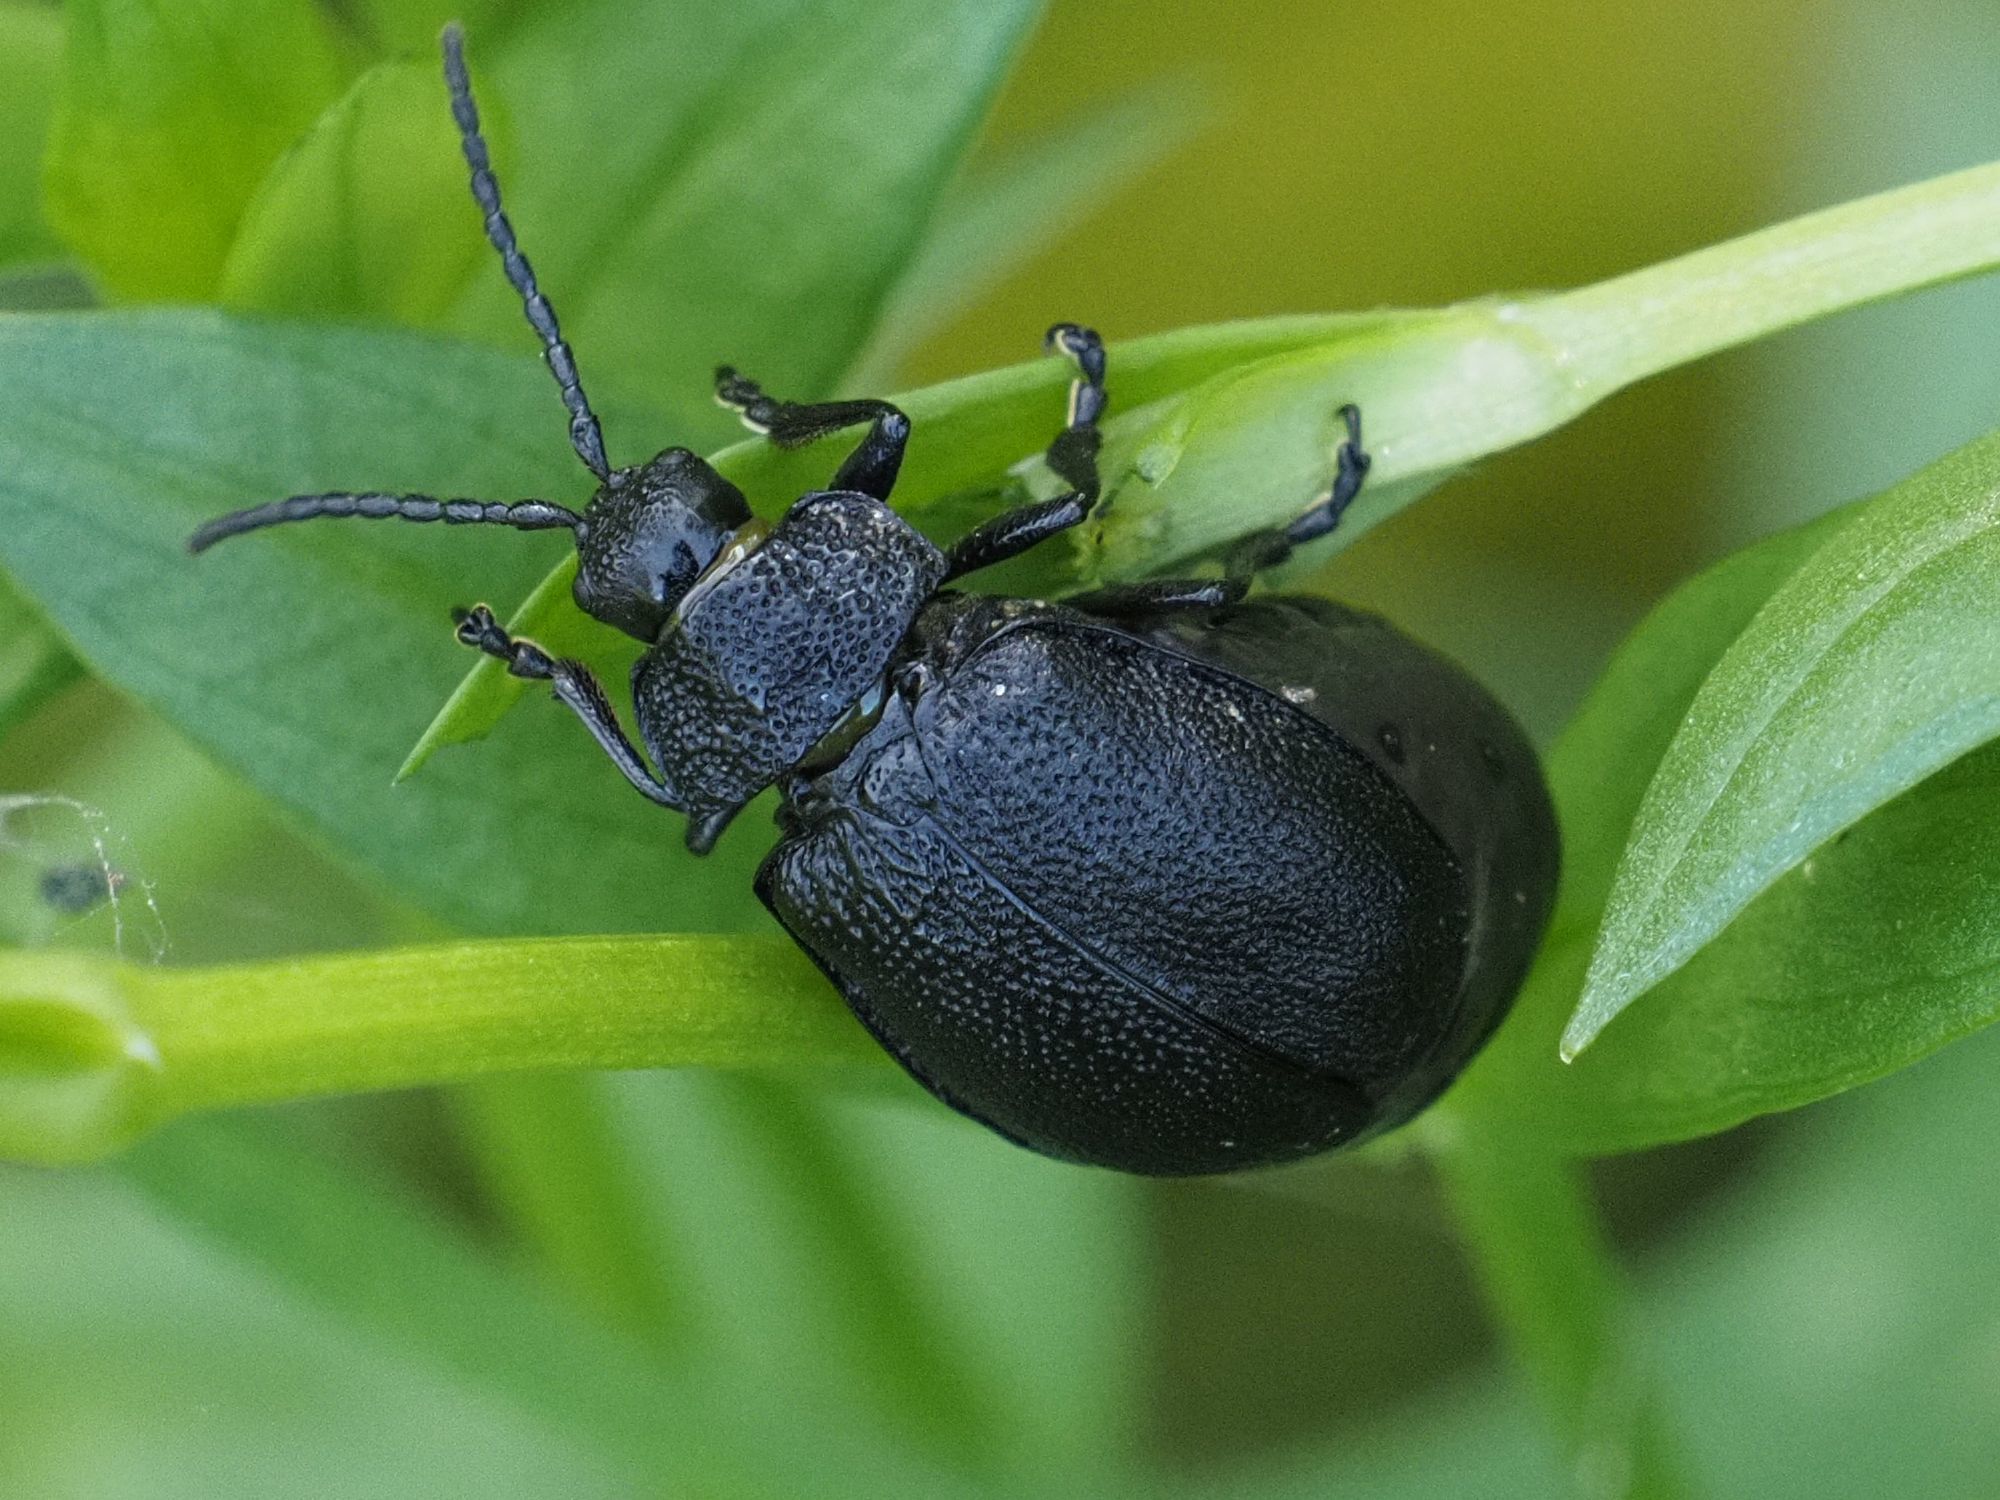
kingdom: Animalia
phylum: Arthropoda
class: Insecta
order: Coleoptera
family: Chrysomelidae
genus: Galeruca
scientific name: Galeruca tanaceti
